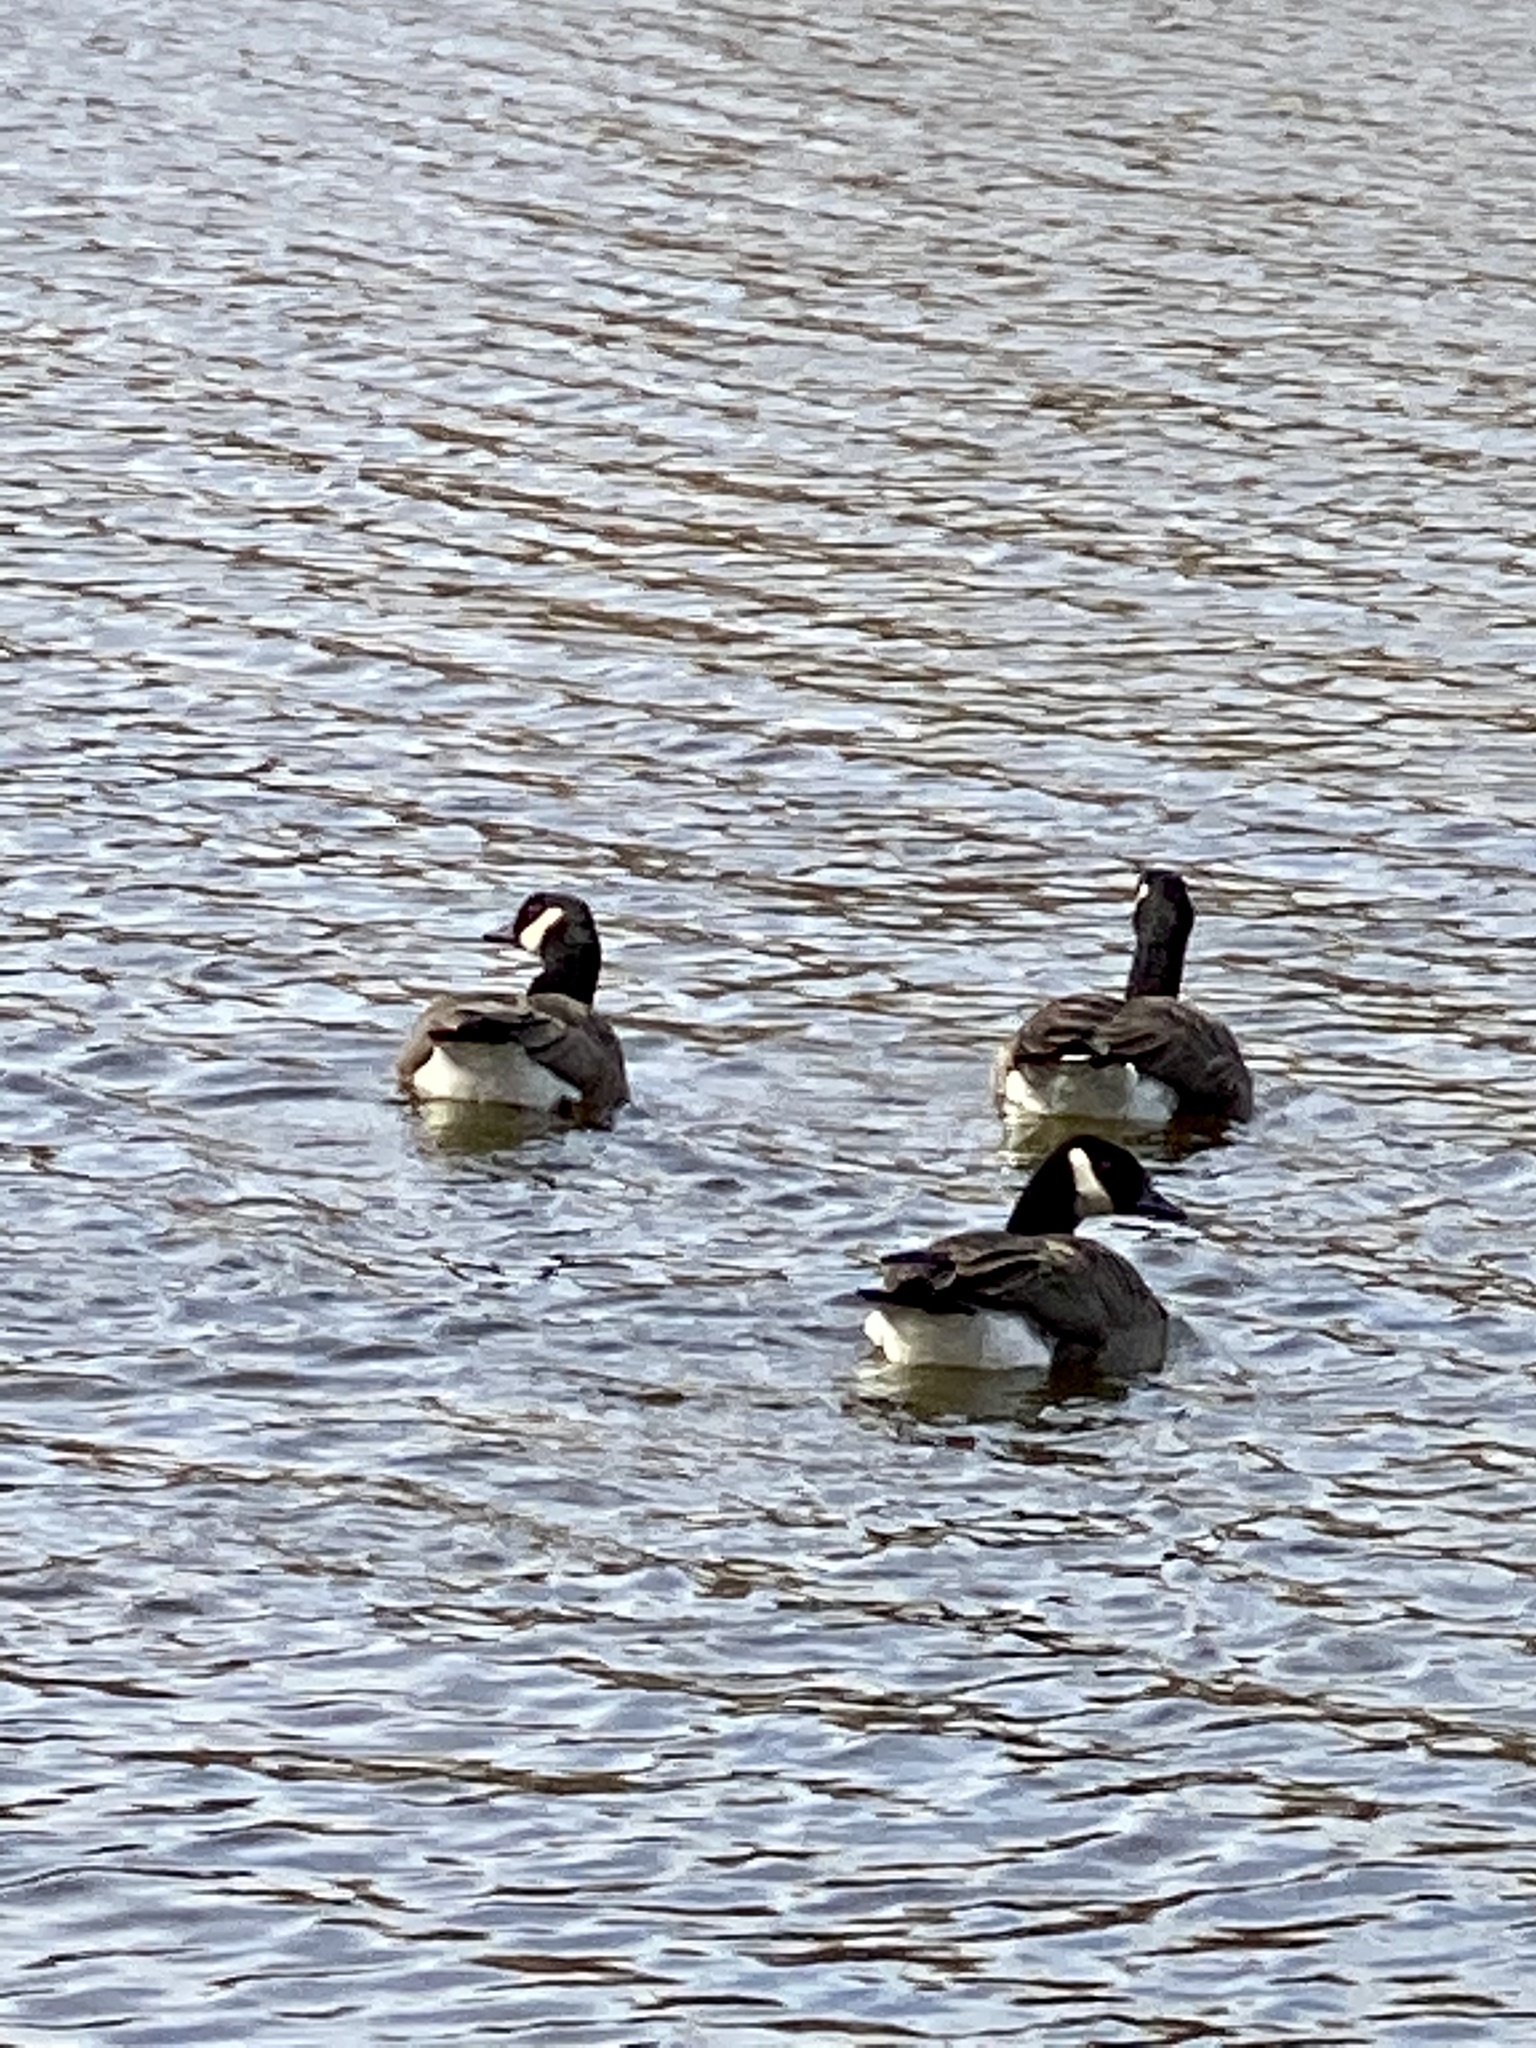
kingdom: Animalia
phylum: Chordata
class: Aves
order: Anseriformes
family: Anatidae
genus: Branta
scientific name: Branta canadensis
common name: Canada goose
